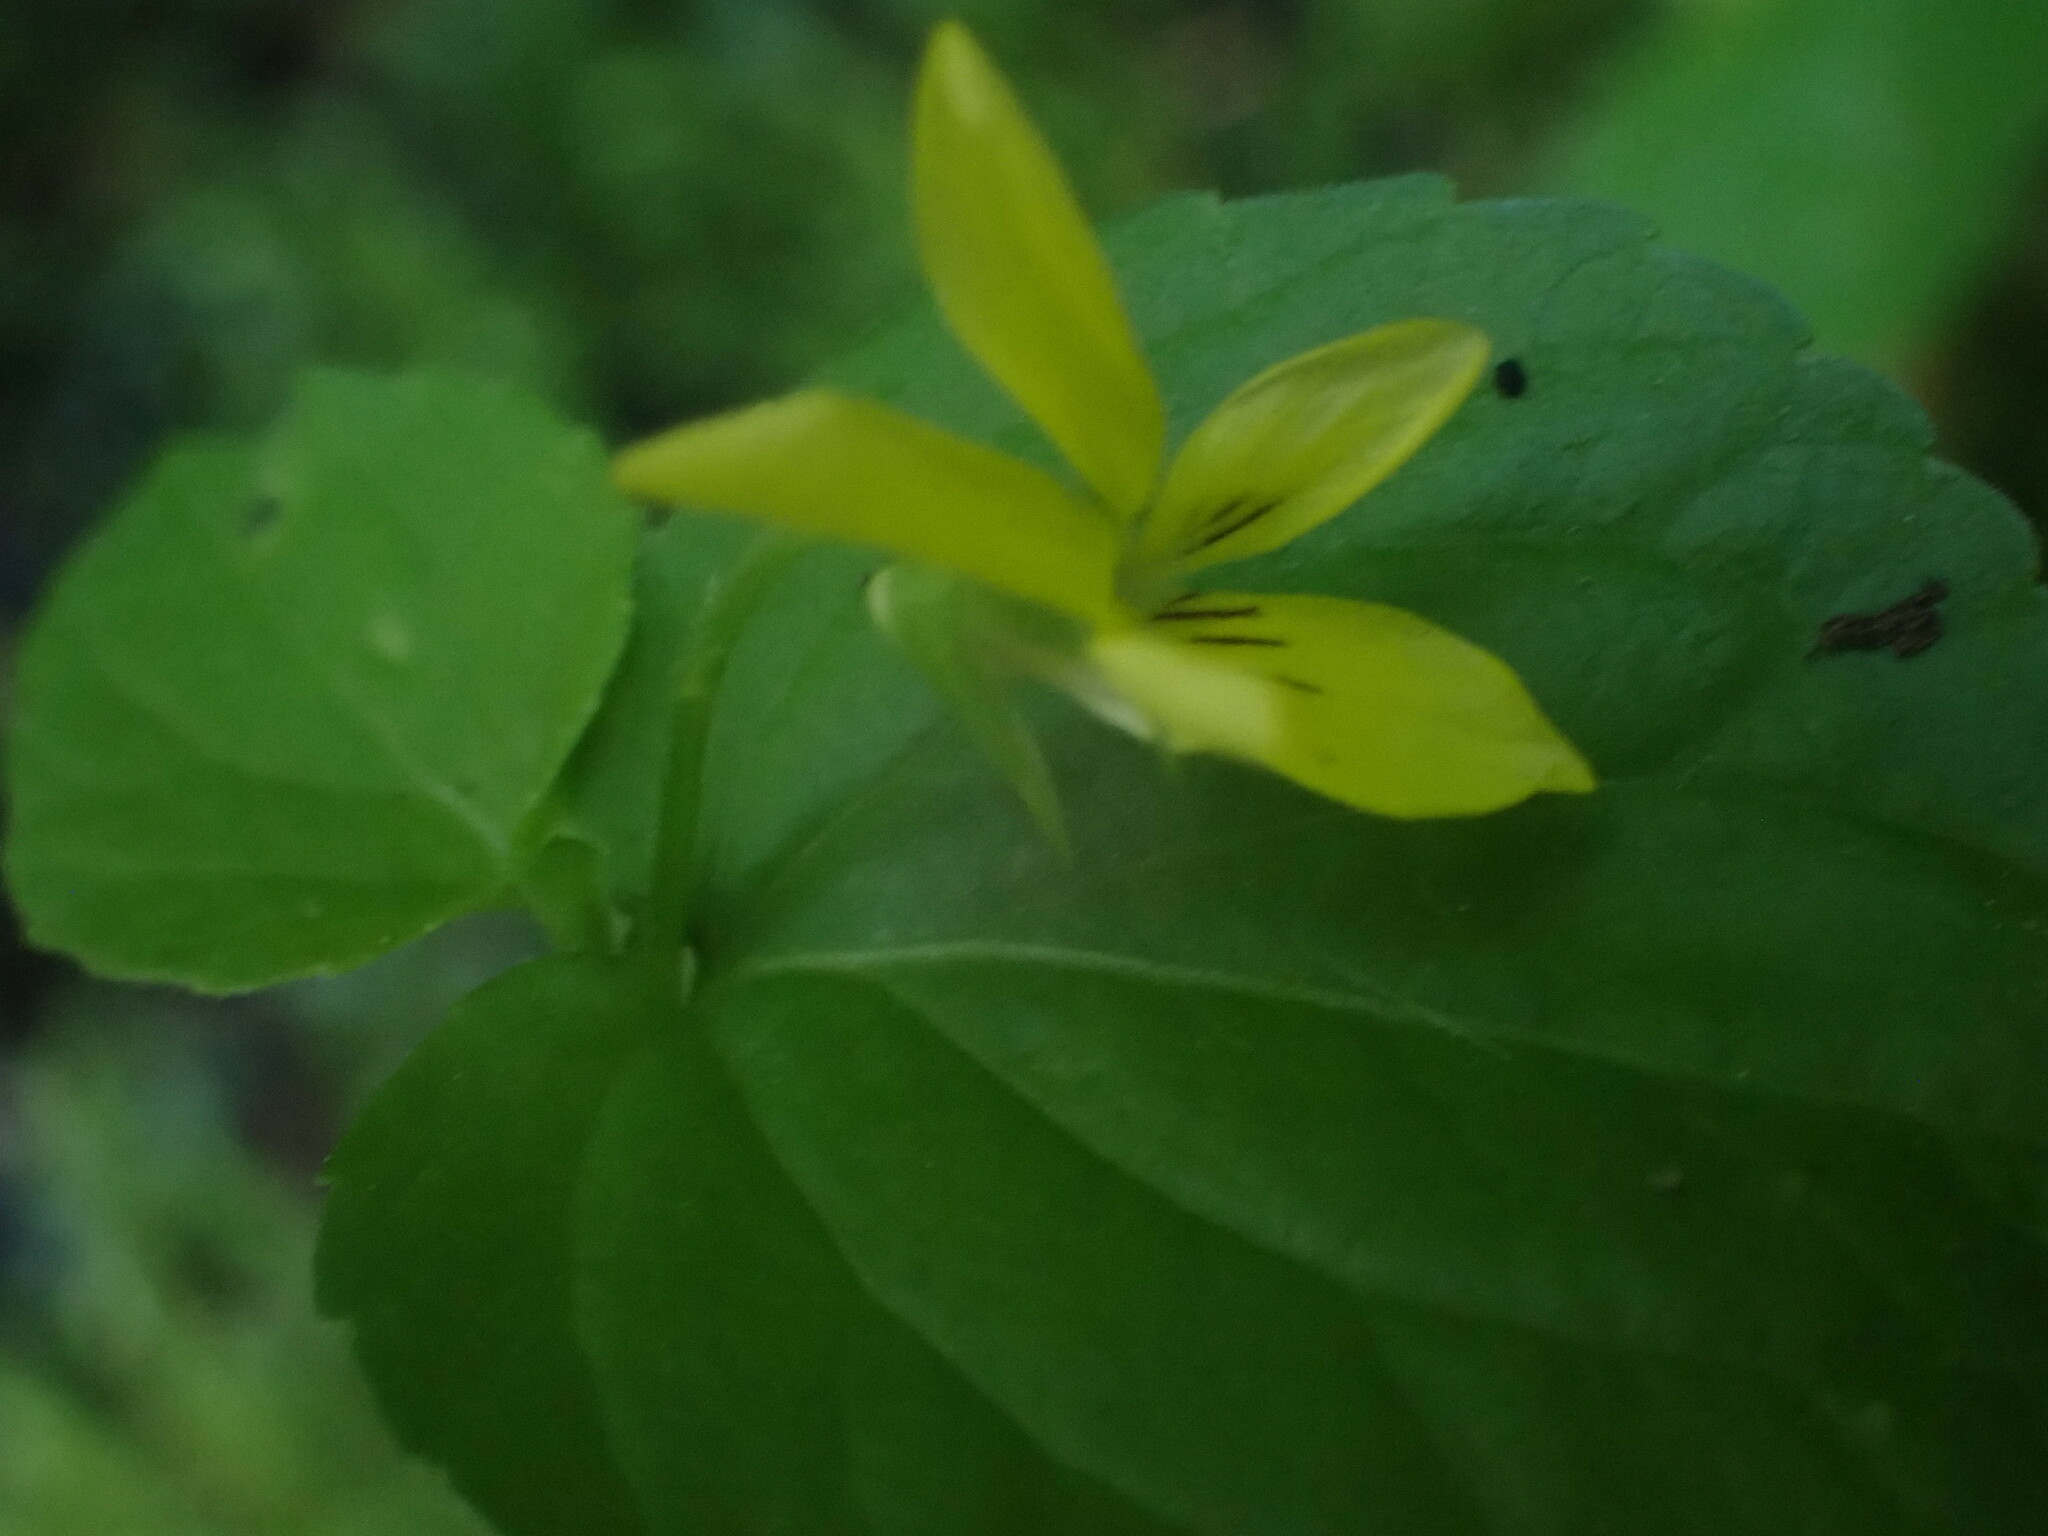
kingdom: Plantae
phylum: Tracheophyta
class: Magnoliopsida
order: Malpighiales
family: Violaceae
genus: Viola
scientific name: Viola glabella
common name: Stream violet
